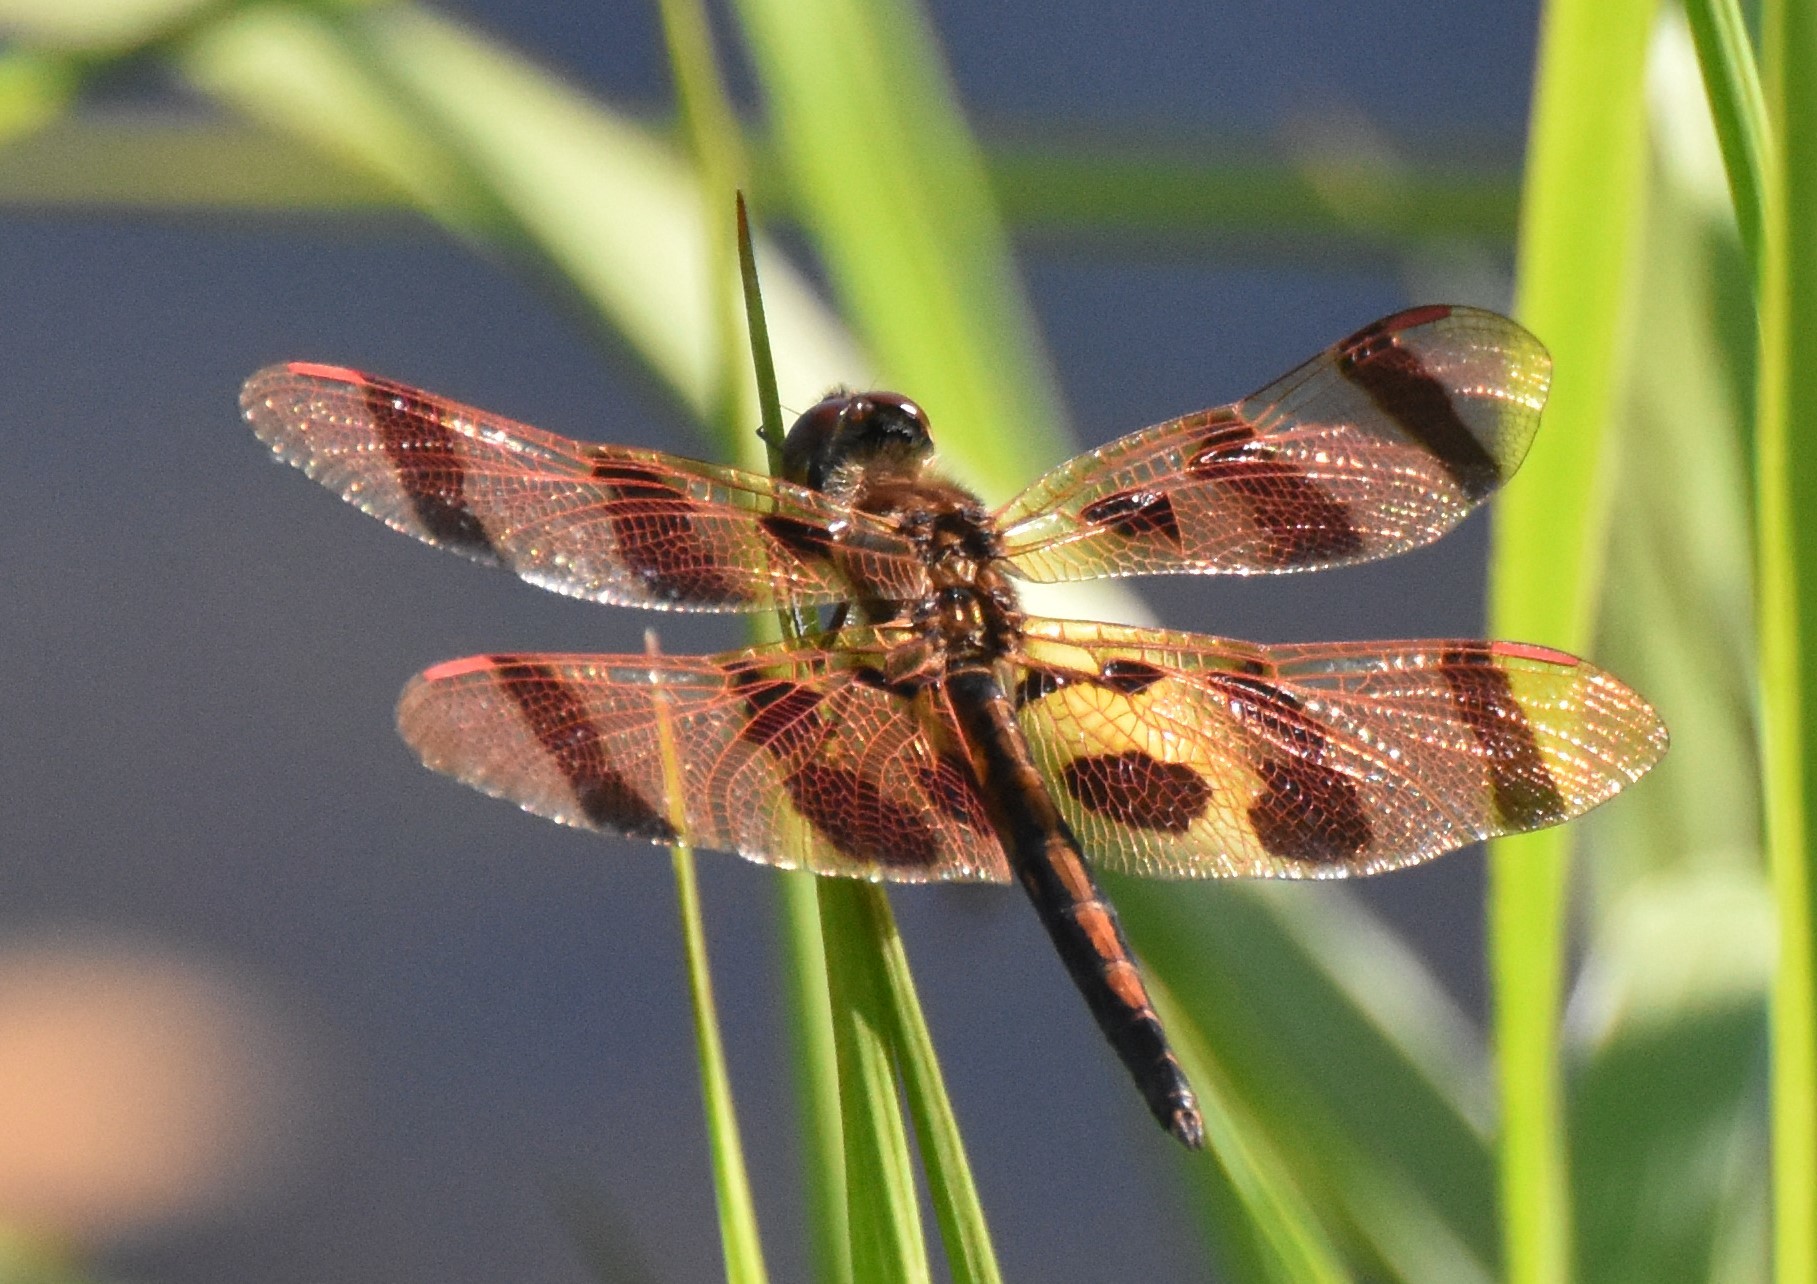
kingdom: Animalia
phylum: Arthropoda
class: Insecta
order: Odonata
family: Libellulidae
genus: Celithemis
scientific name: Celithemis eponina
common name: Halloween pennant
